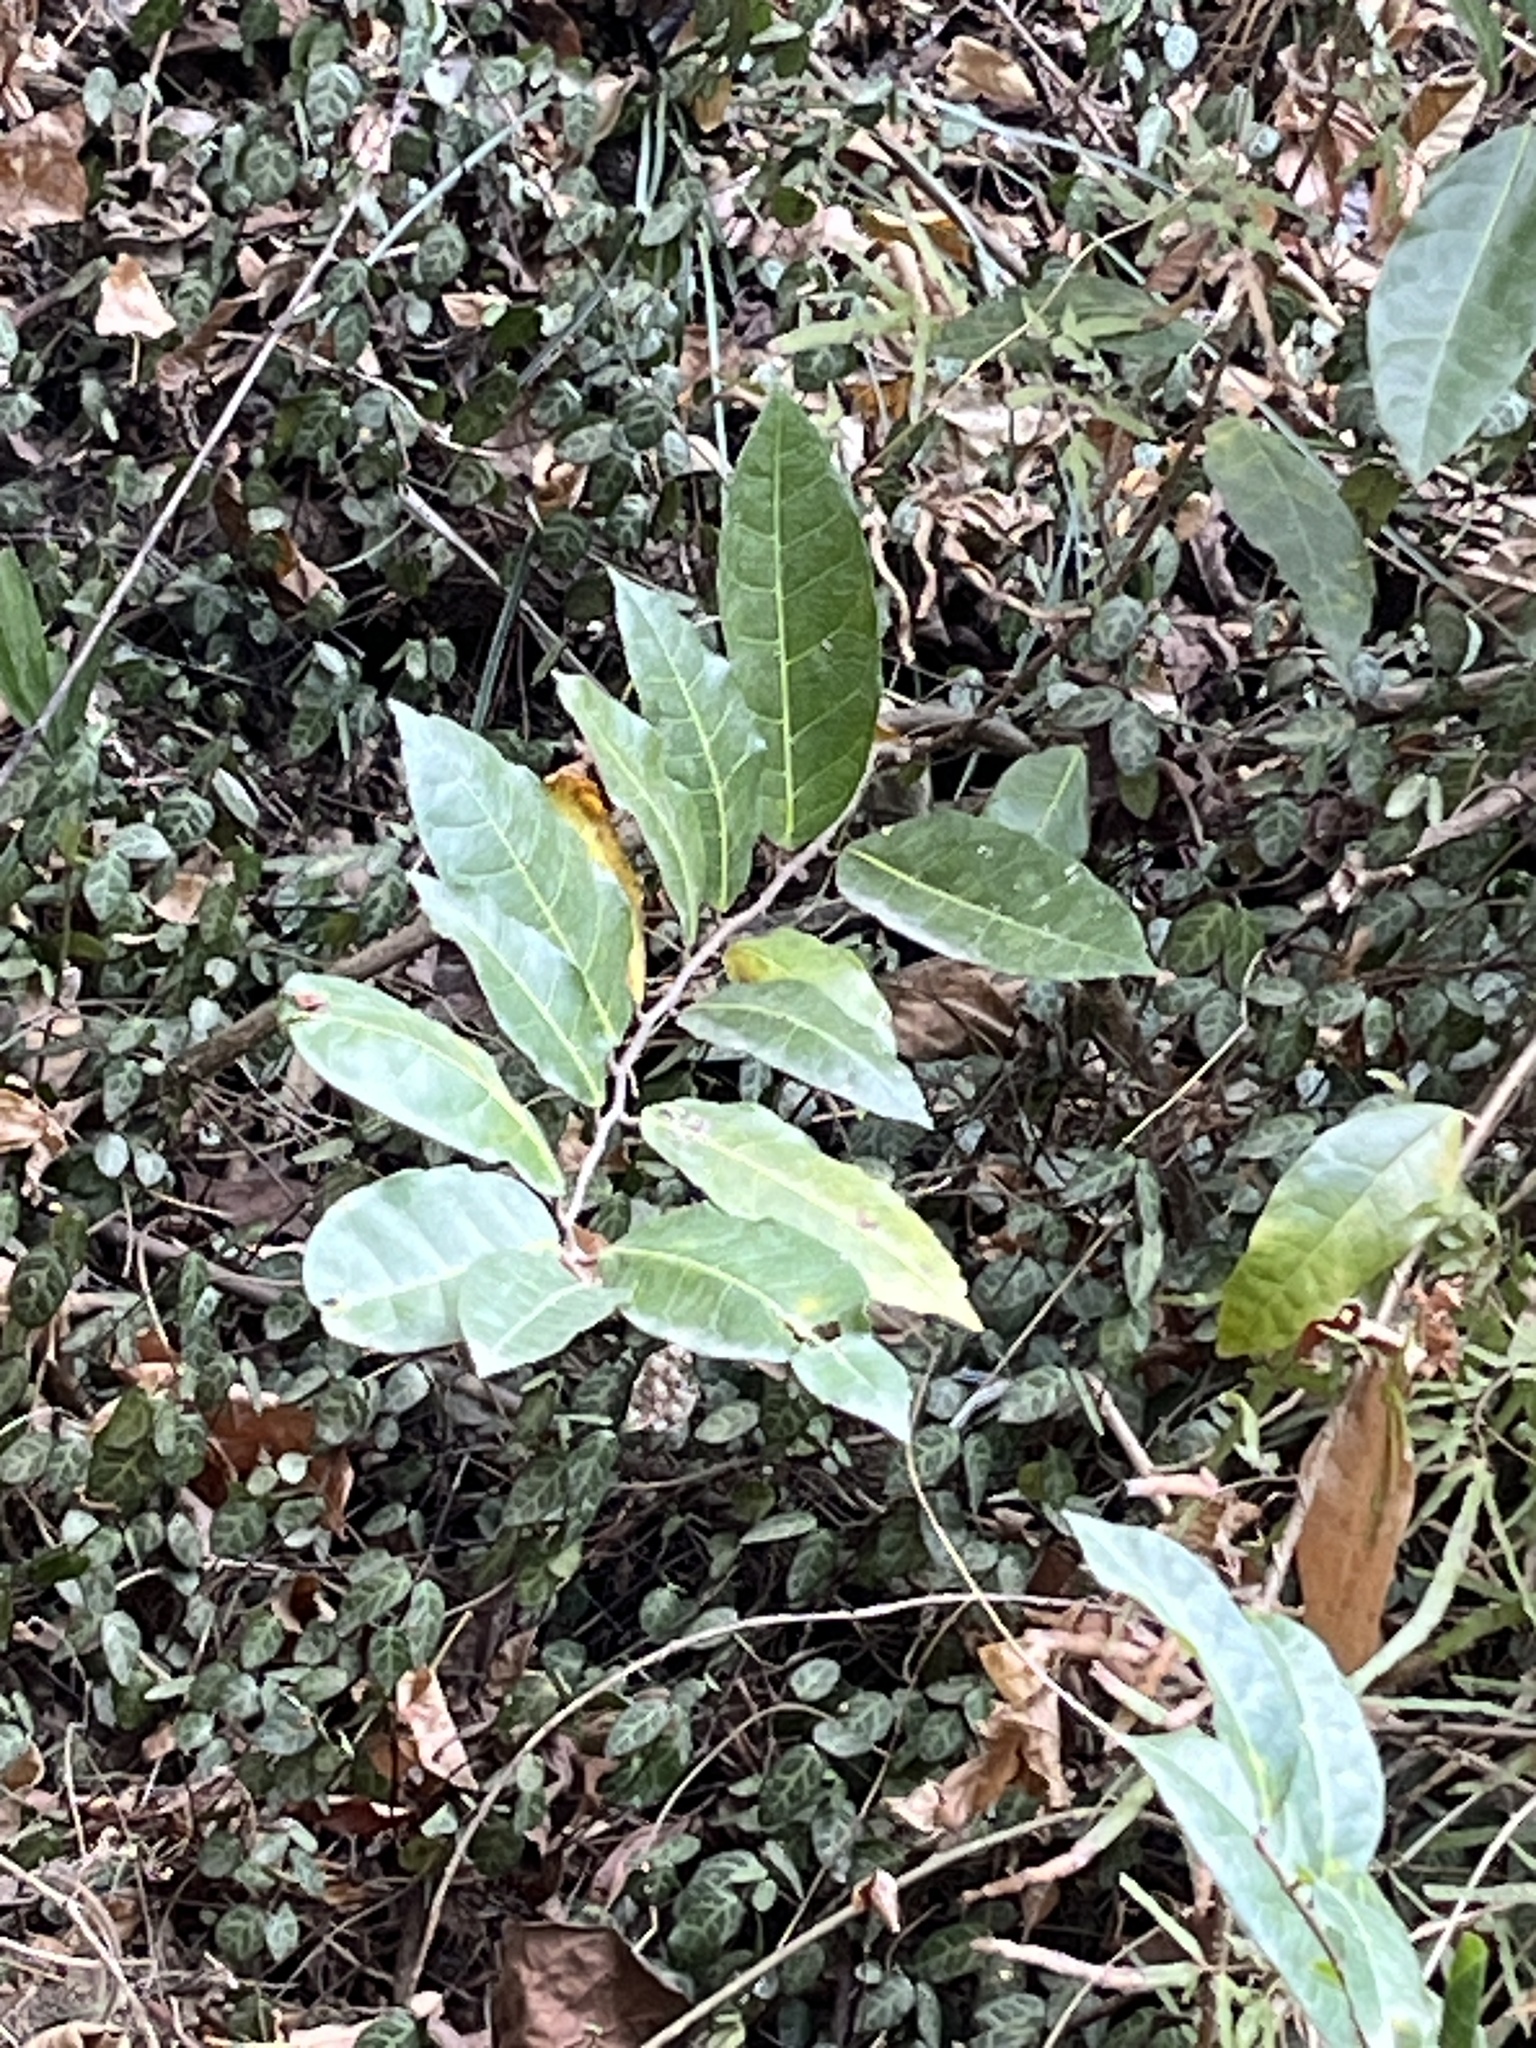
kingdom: Plantae
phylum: Tracheophyta
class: Magnoliopsida
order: Rosales
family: Moraceae
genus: Malaisia
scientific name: Malaisia scandens
